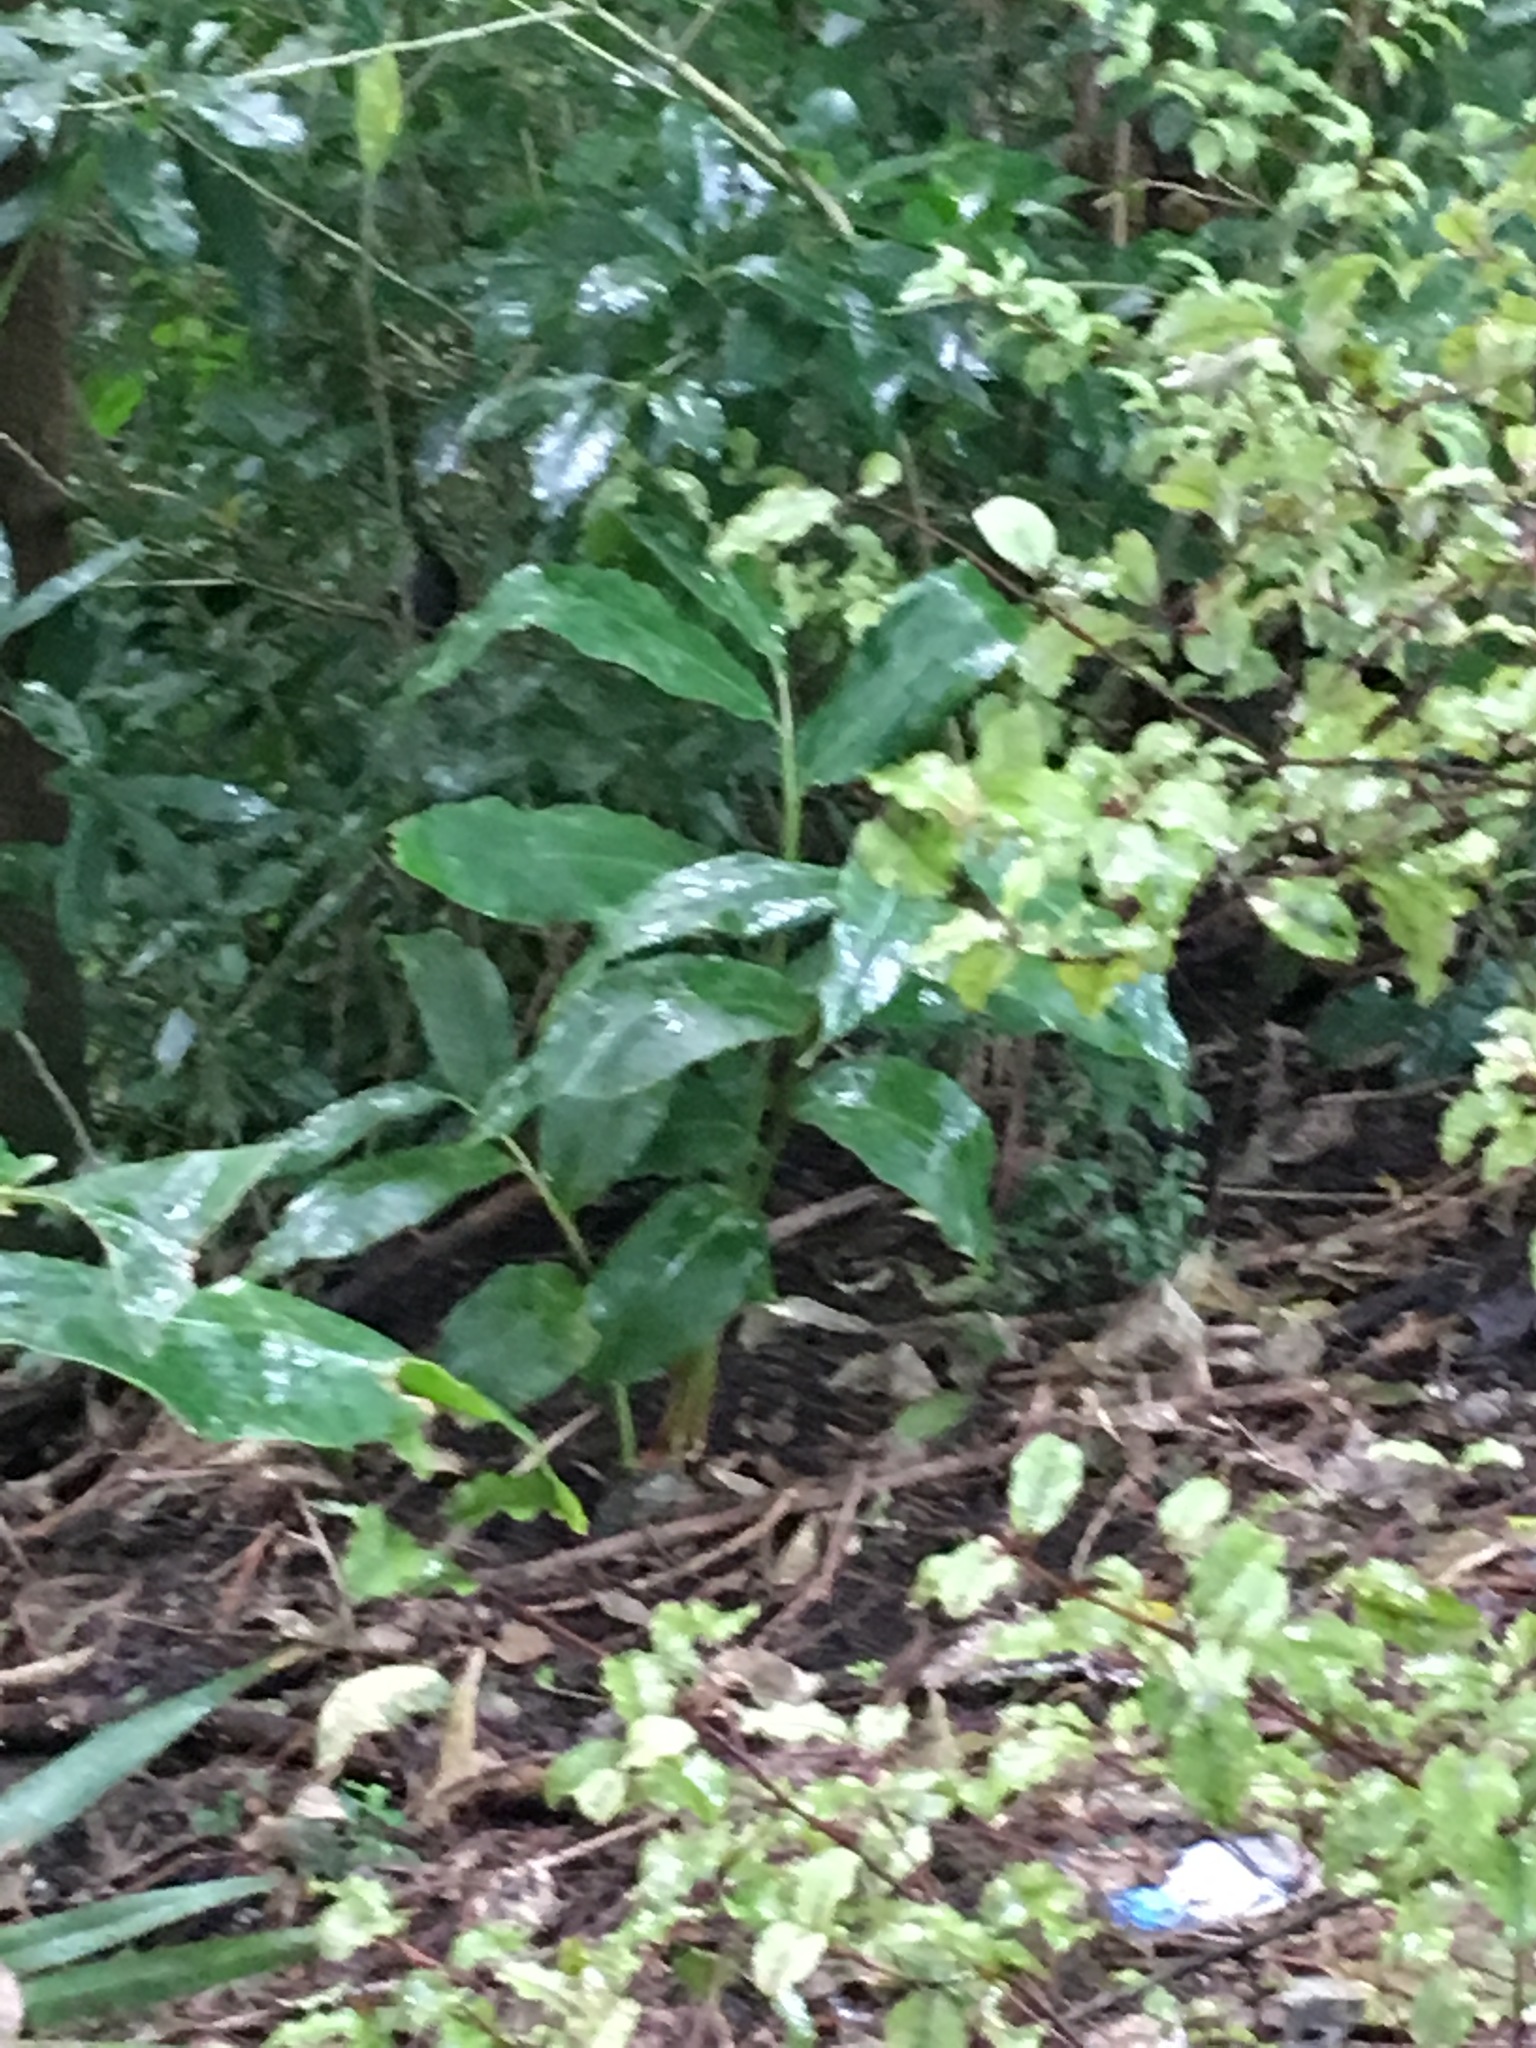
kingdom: Plantae
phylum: Tracheophyta
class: Liliopsida
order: Zingiberales
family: Zingiberaceae
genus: Hedychium
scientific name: Hedychium gardnerianum
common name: Himalayan ginger
